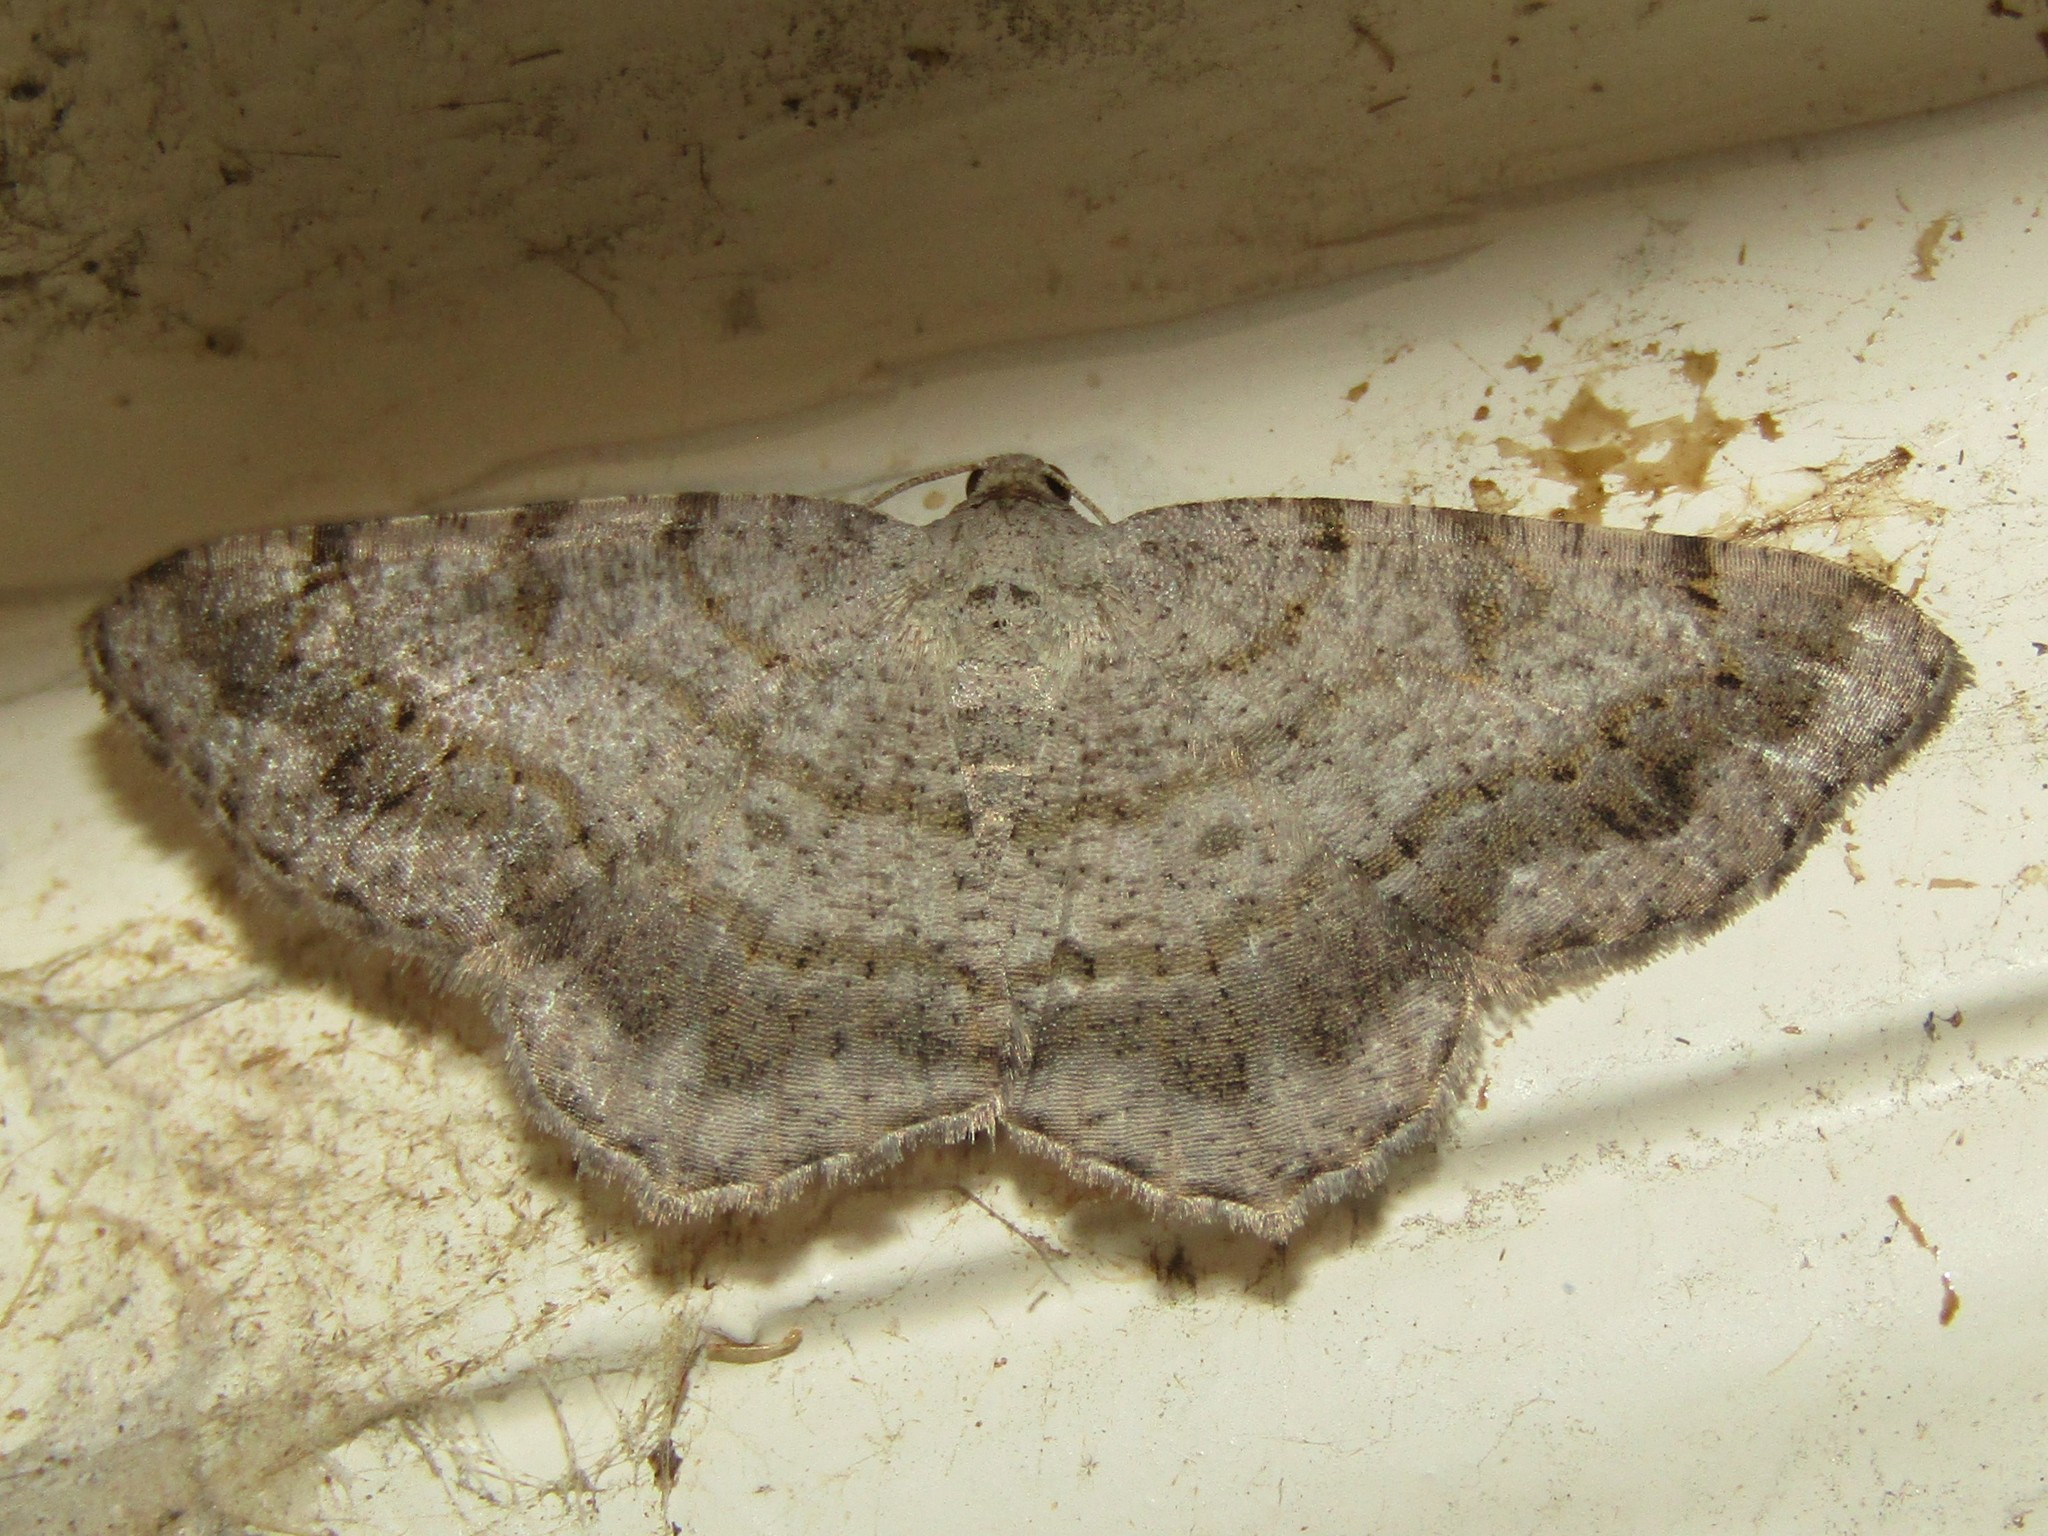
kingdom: Animalia
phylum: Arthropoda
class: Insecta
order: Lepidoptera
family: Geometridae
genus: Digrammia
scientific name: Digrammia ocellinata
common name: Faint-spotted angle
